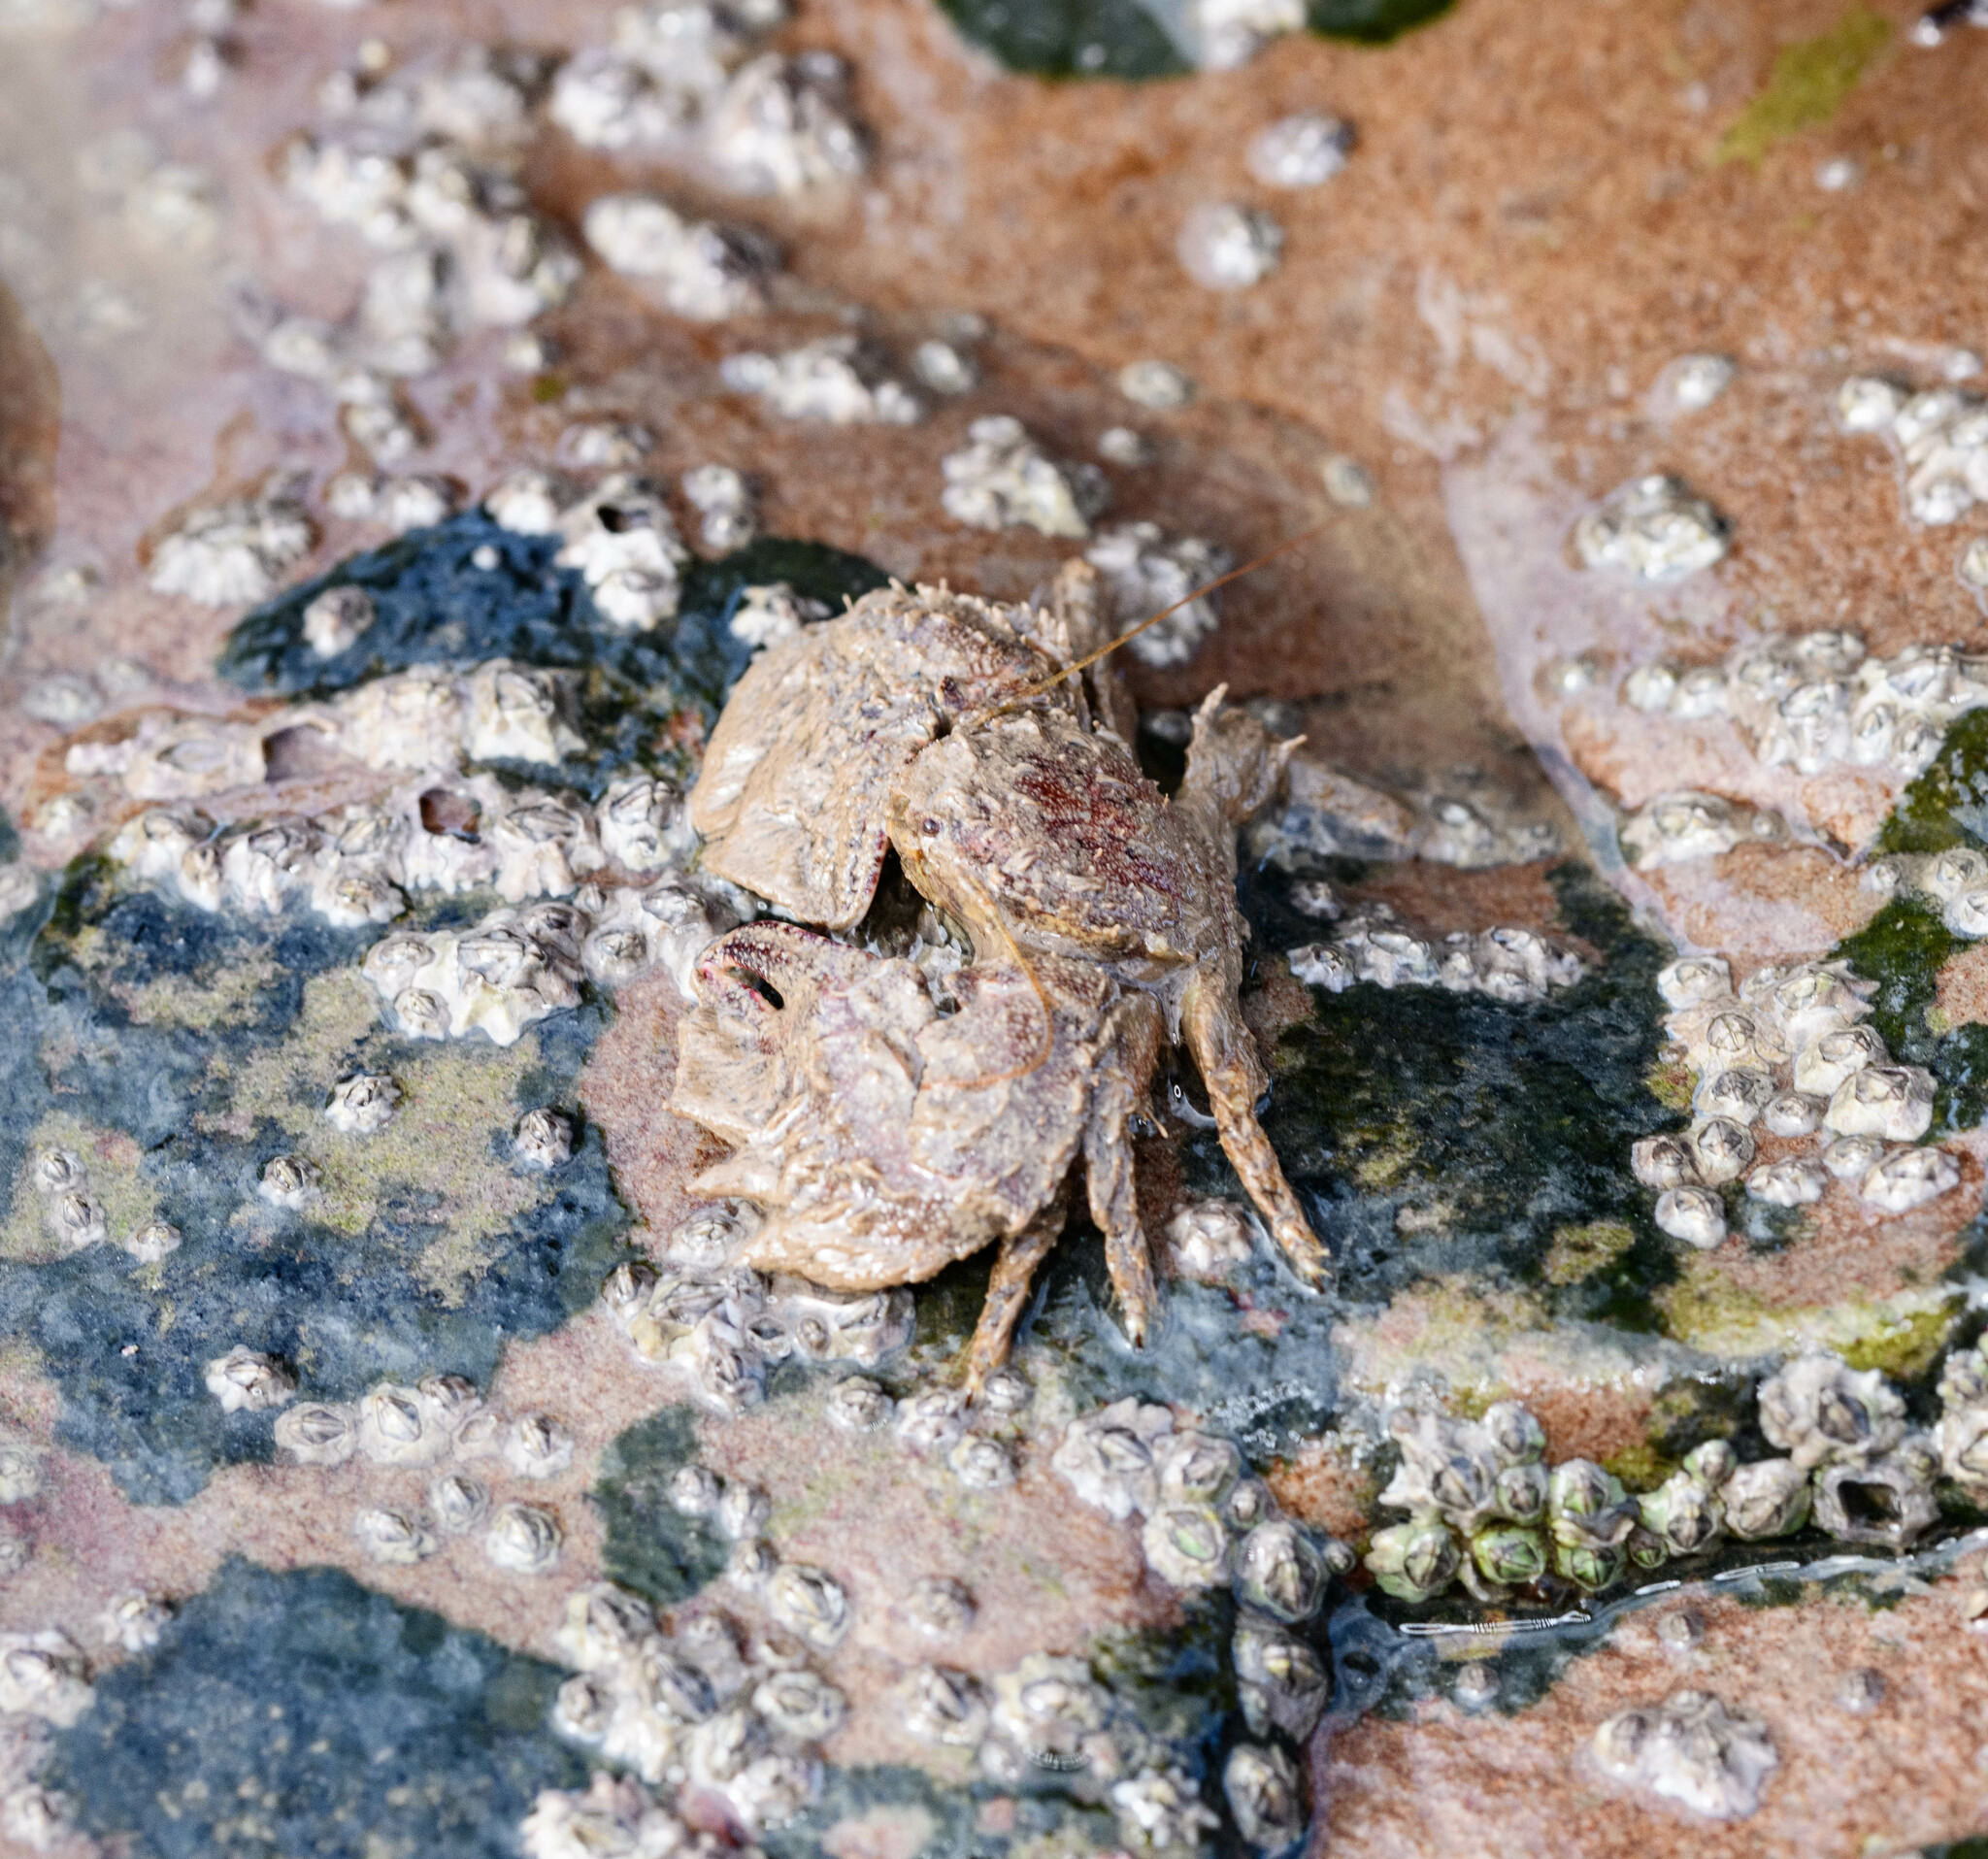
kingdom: Animalia
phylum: Arthropoda
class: Malacostraca
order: Decapoda
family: Porcellanidae
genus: Porcellana
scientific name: Porcellana platycheles
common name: Porcelain crab
